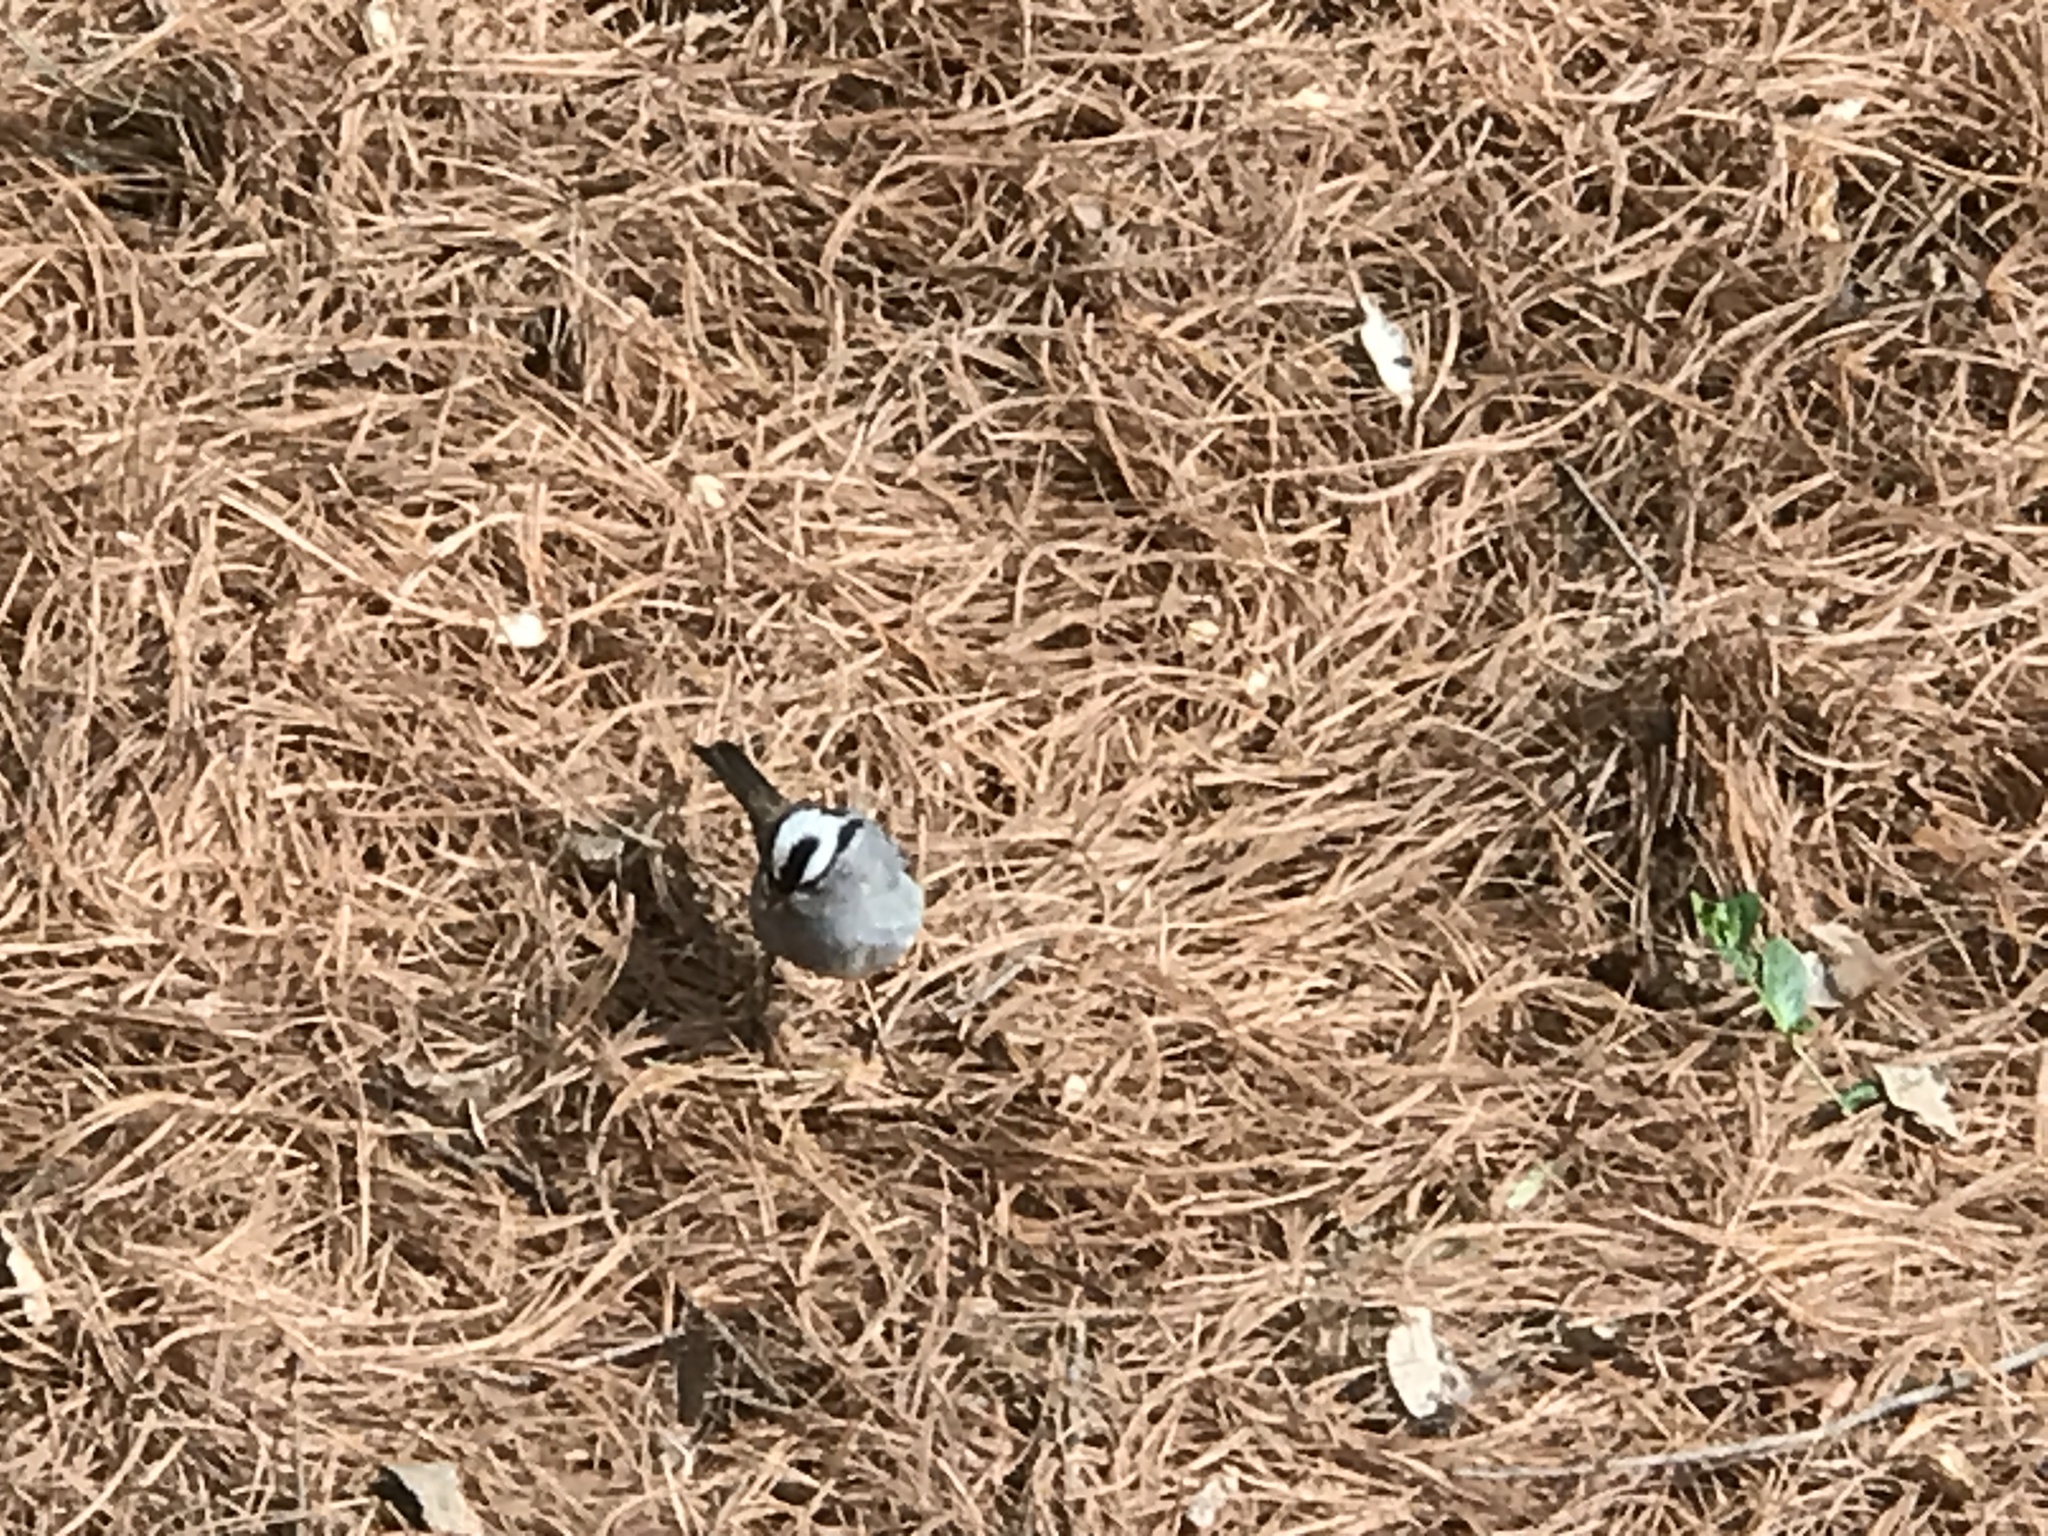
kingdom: Animalia
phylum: Chordata
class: Aves
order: Passeriformes
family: Passerellidae
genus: Zonotrichia
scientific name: Zonotrichia leucophrys
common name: White-crowned sparrow
